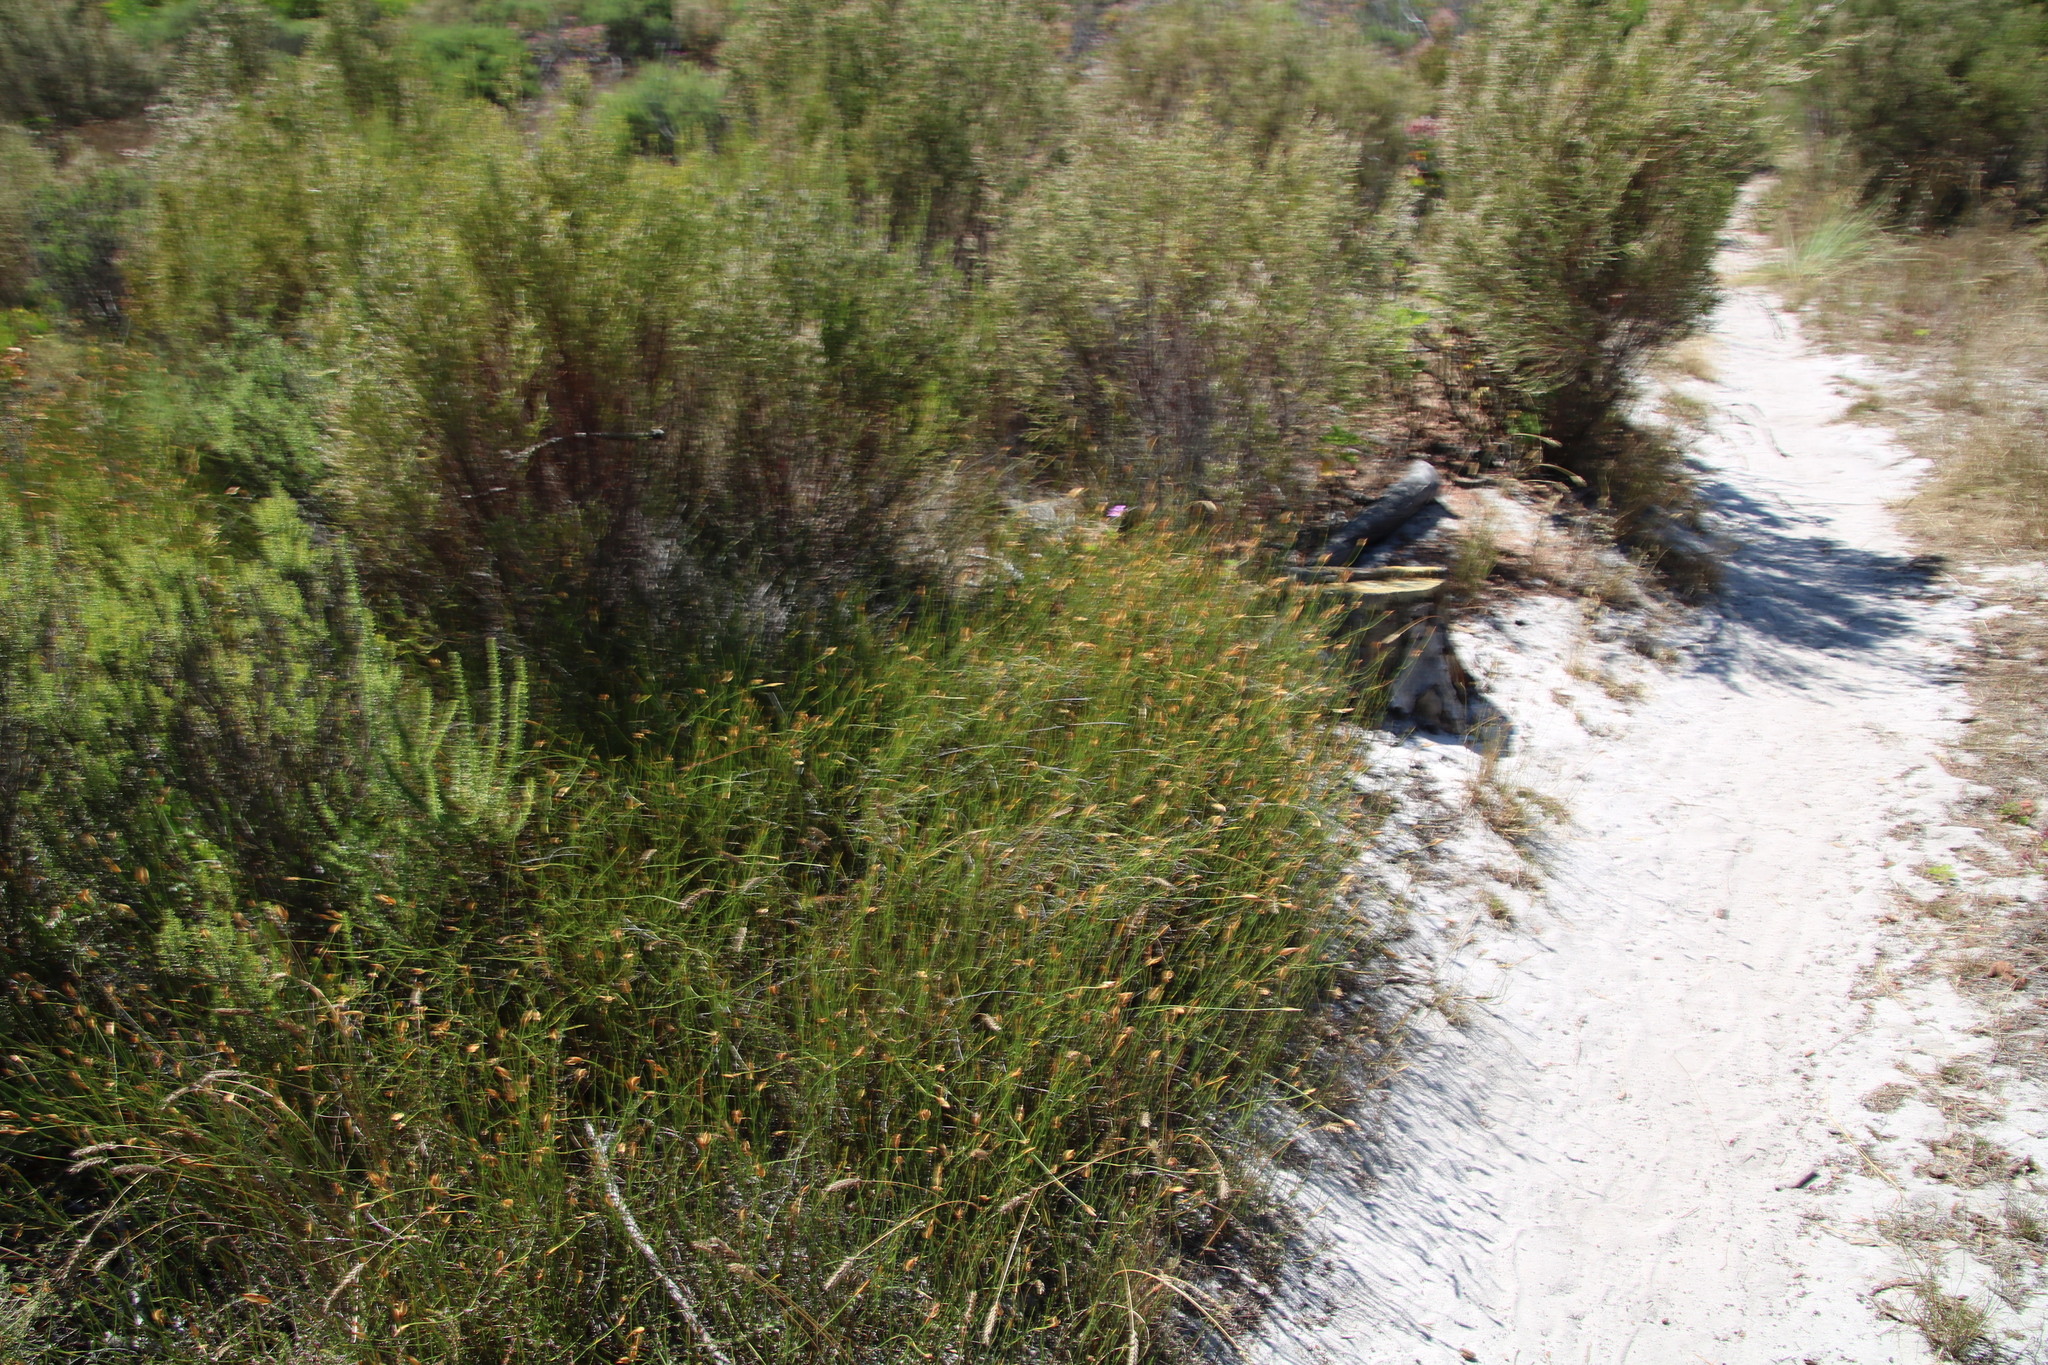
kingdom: Plantae
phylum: Tracheophyta
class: Liliopsida
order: Poales
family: Restionaceae
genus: Willdenowia
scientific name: Willdenowia sulcata
